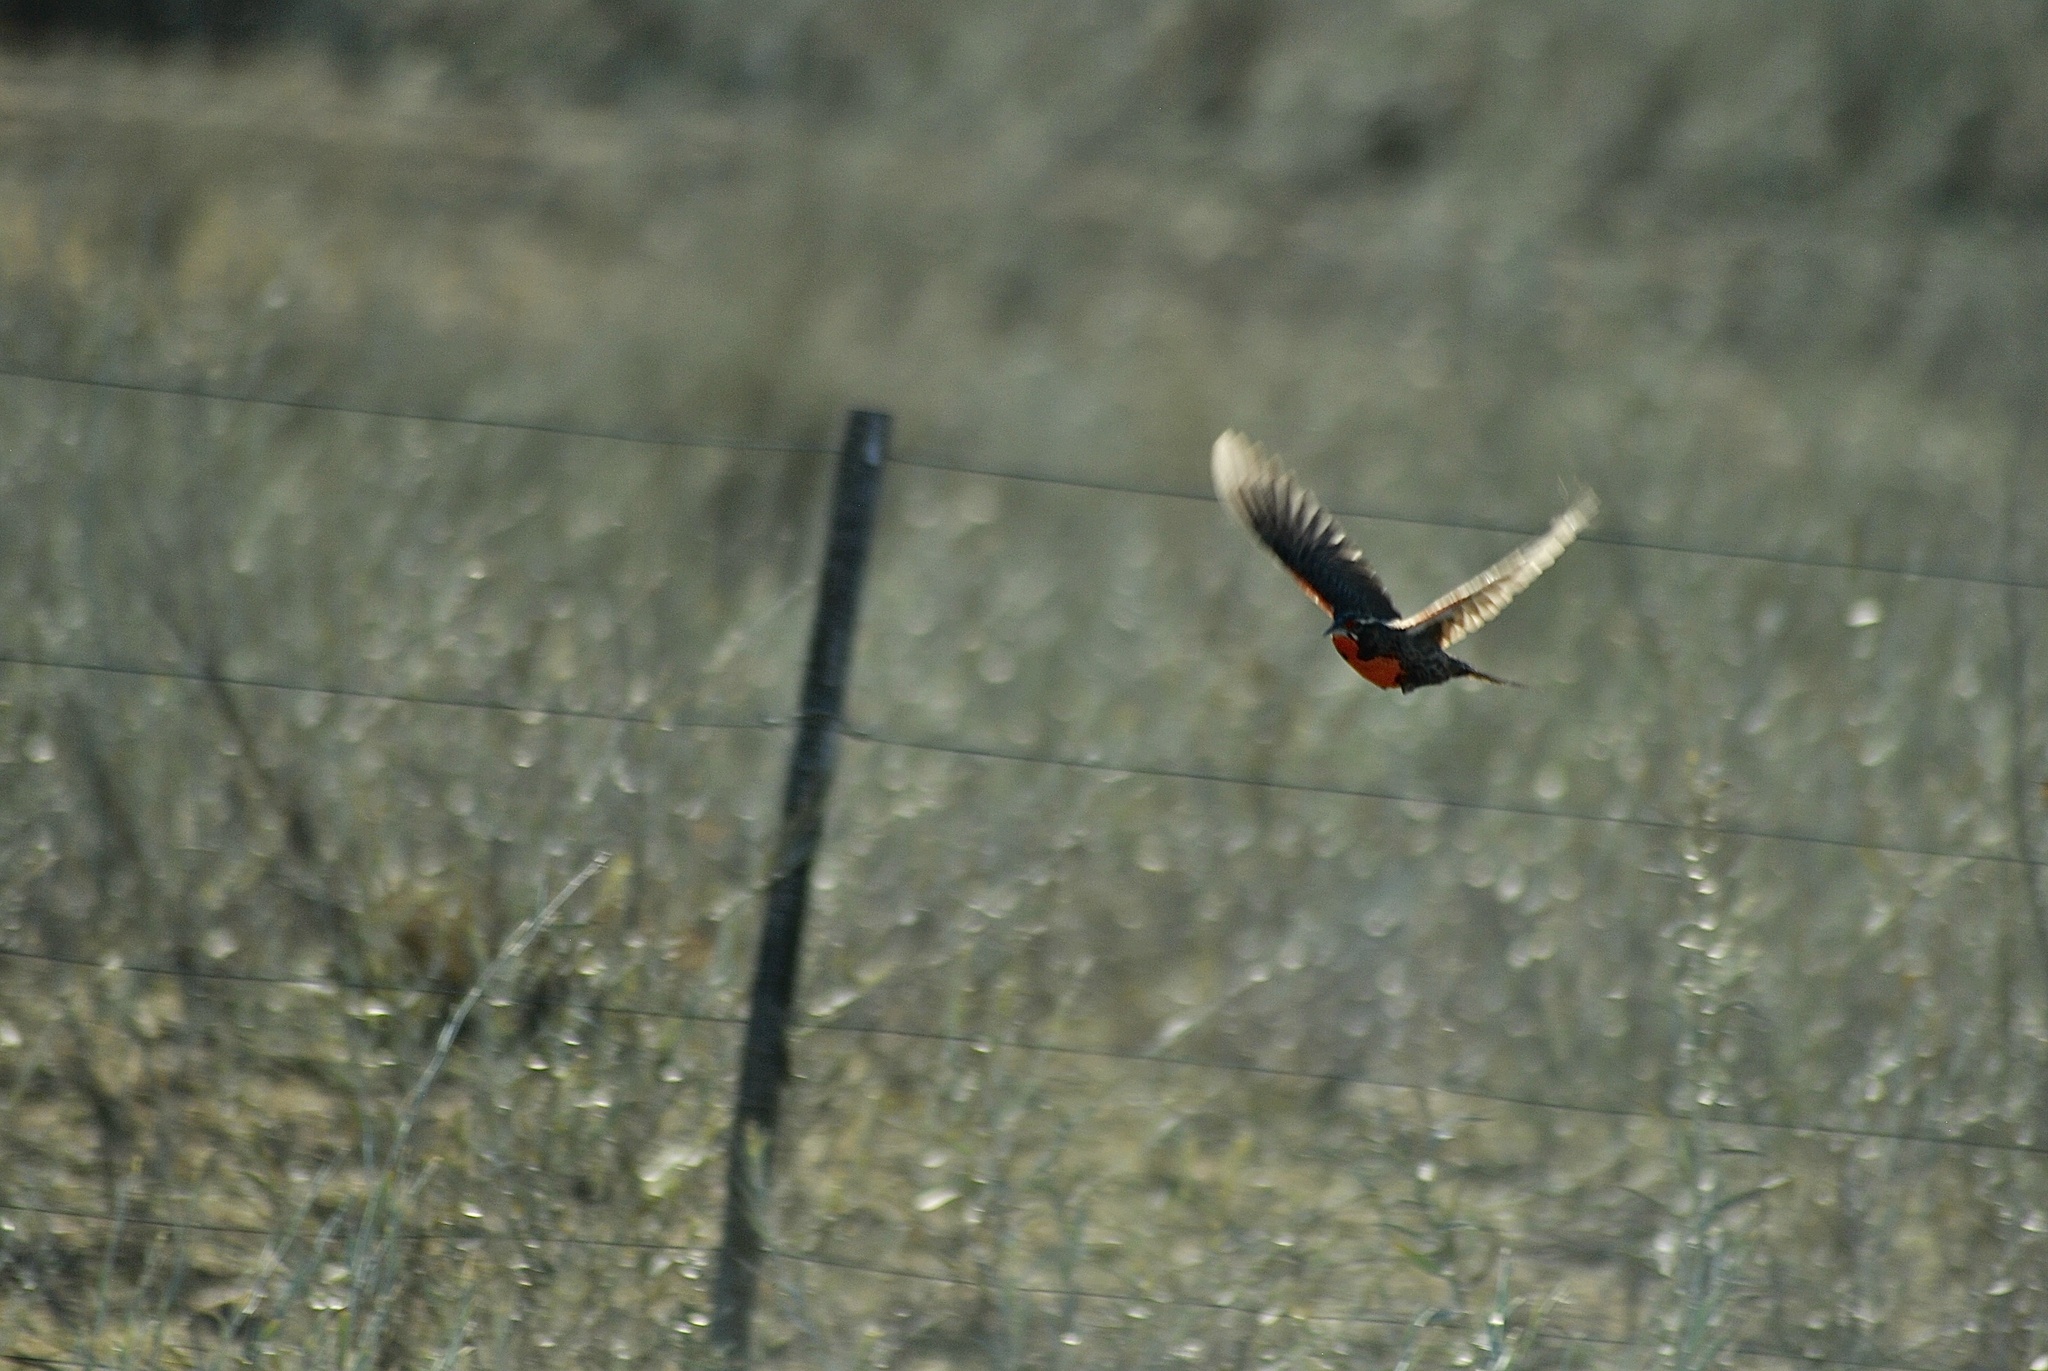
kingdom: Animalia
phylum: Chordata
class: Aves
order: Passeriformes
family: Icteridae
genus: Sturnella
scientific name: Sturnella loyca
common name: Long-tailed meadowlark
